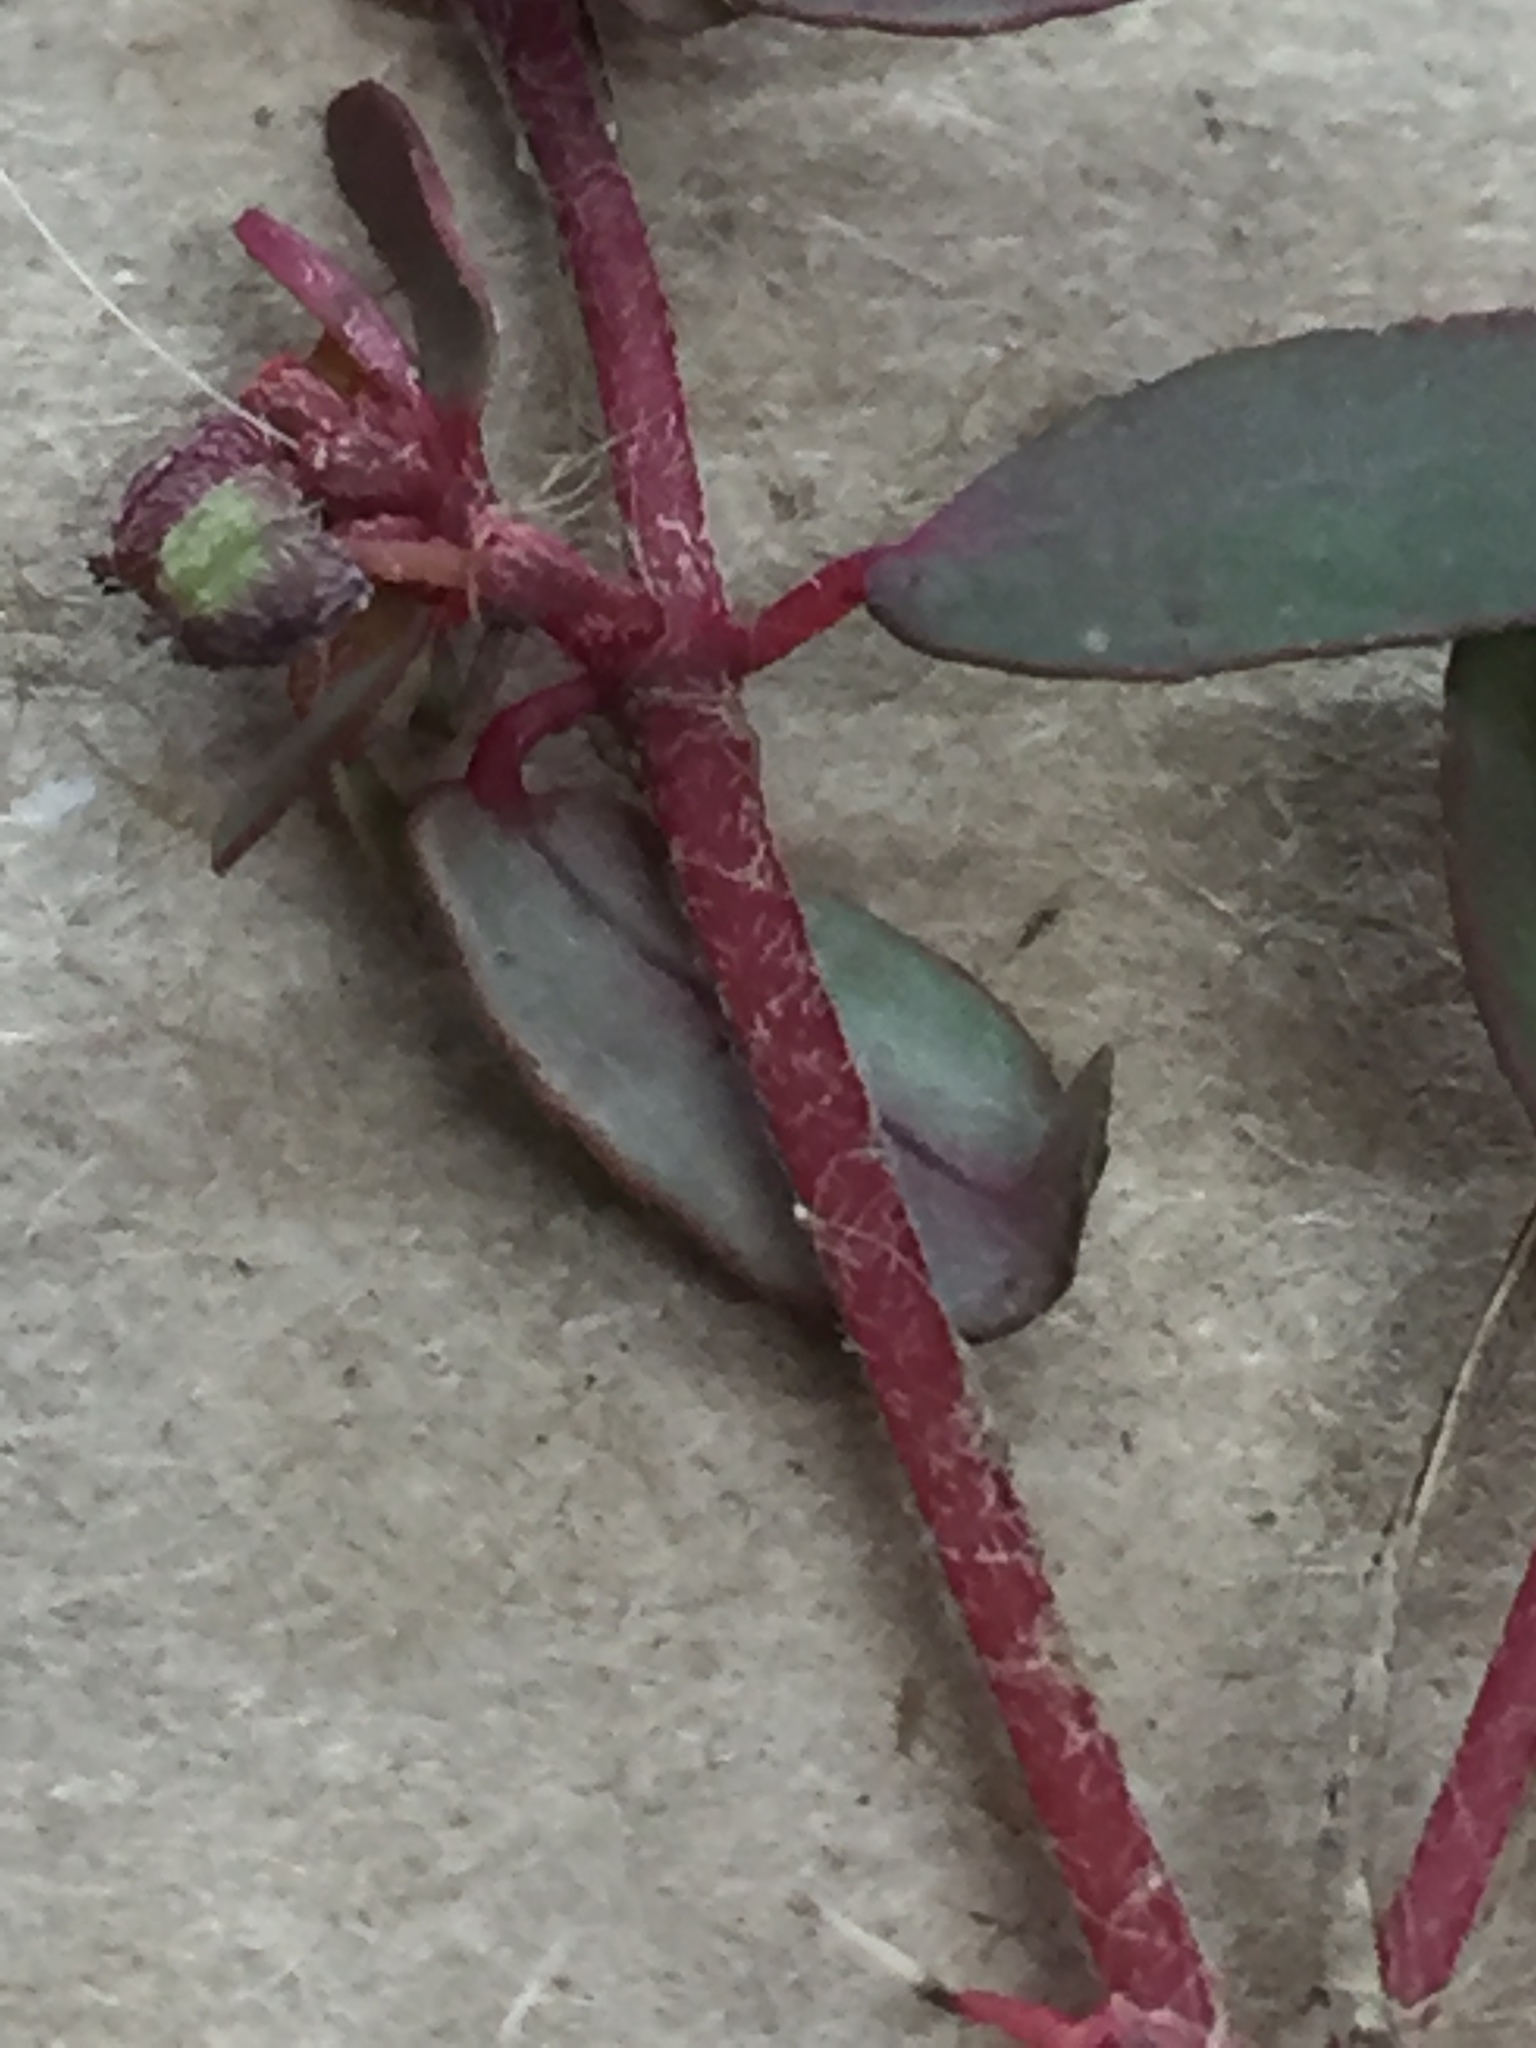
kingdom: Plantae
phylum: Tracheophyta
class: Magnoliopsida
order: Malpighiales
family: Euphorbiaceae
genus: Euphorbia
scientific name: Euphorbia maculata
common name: Spotted spurge
